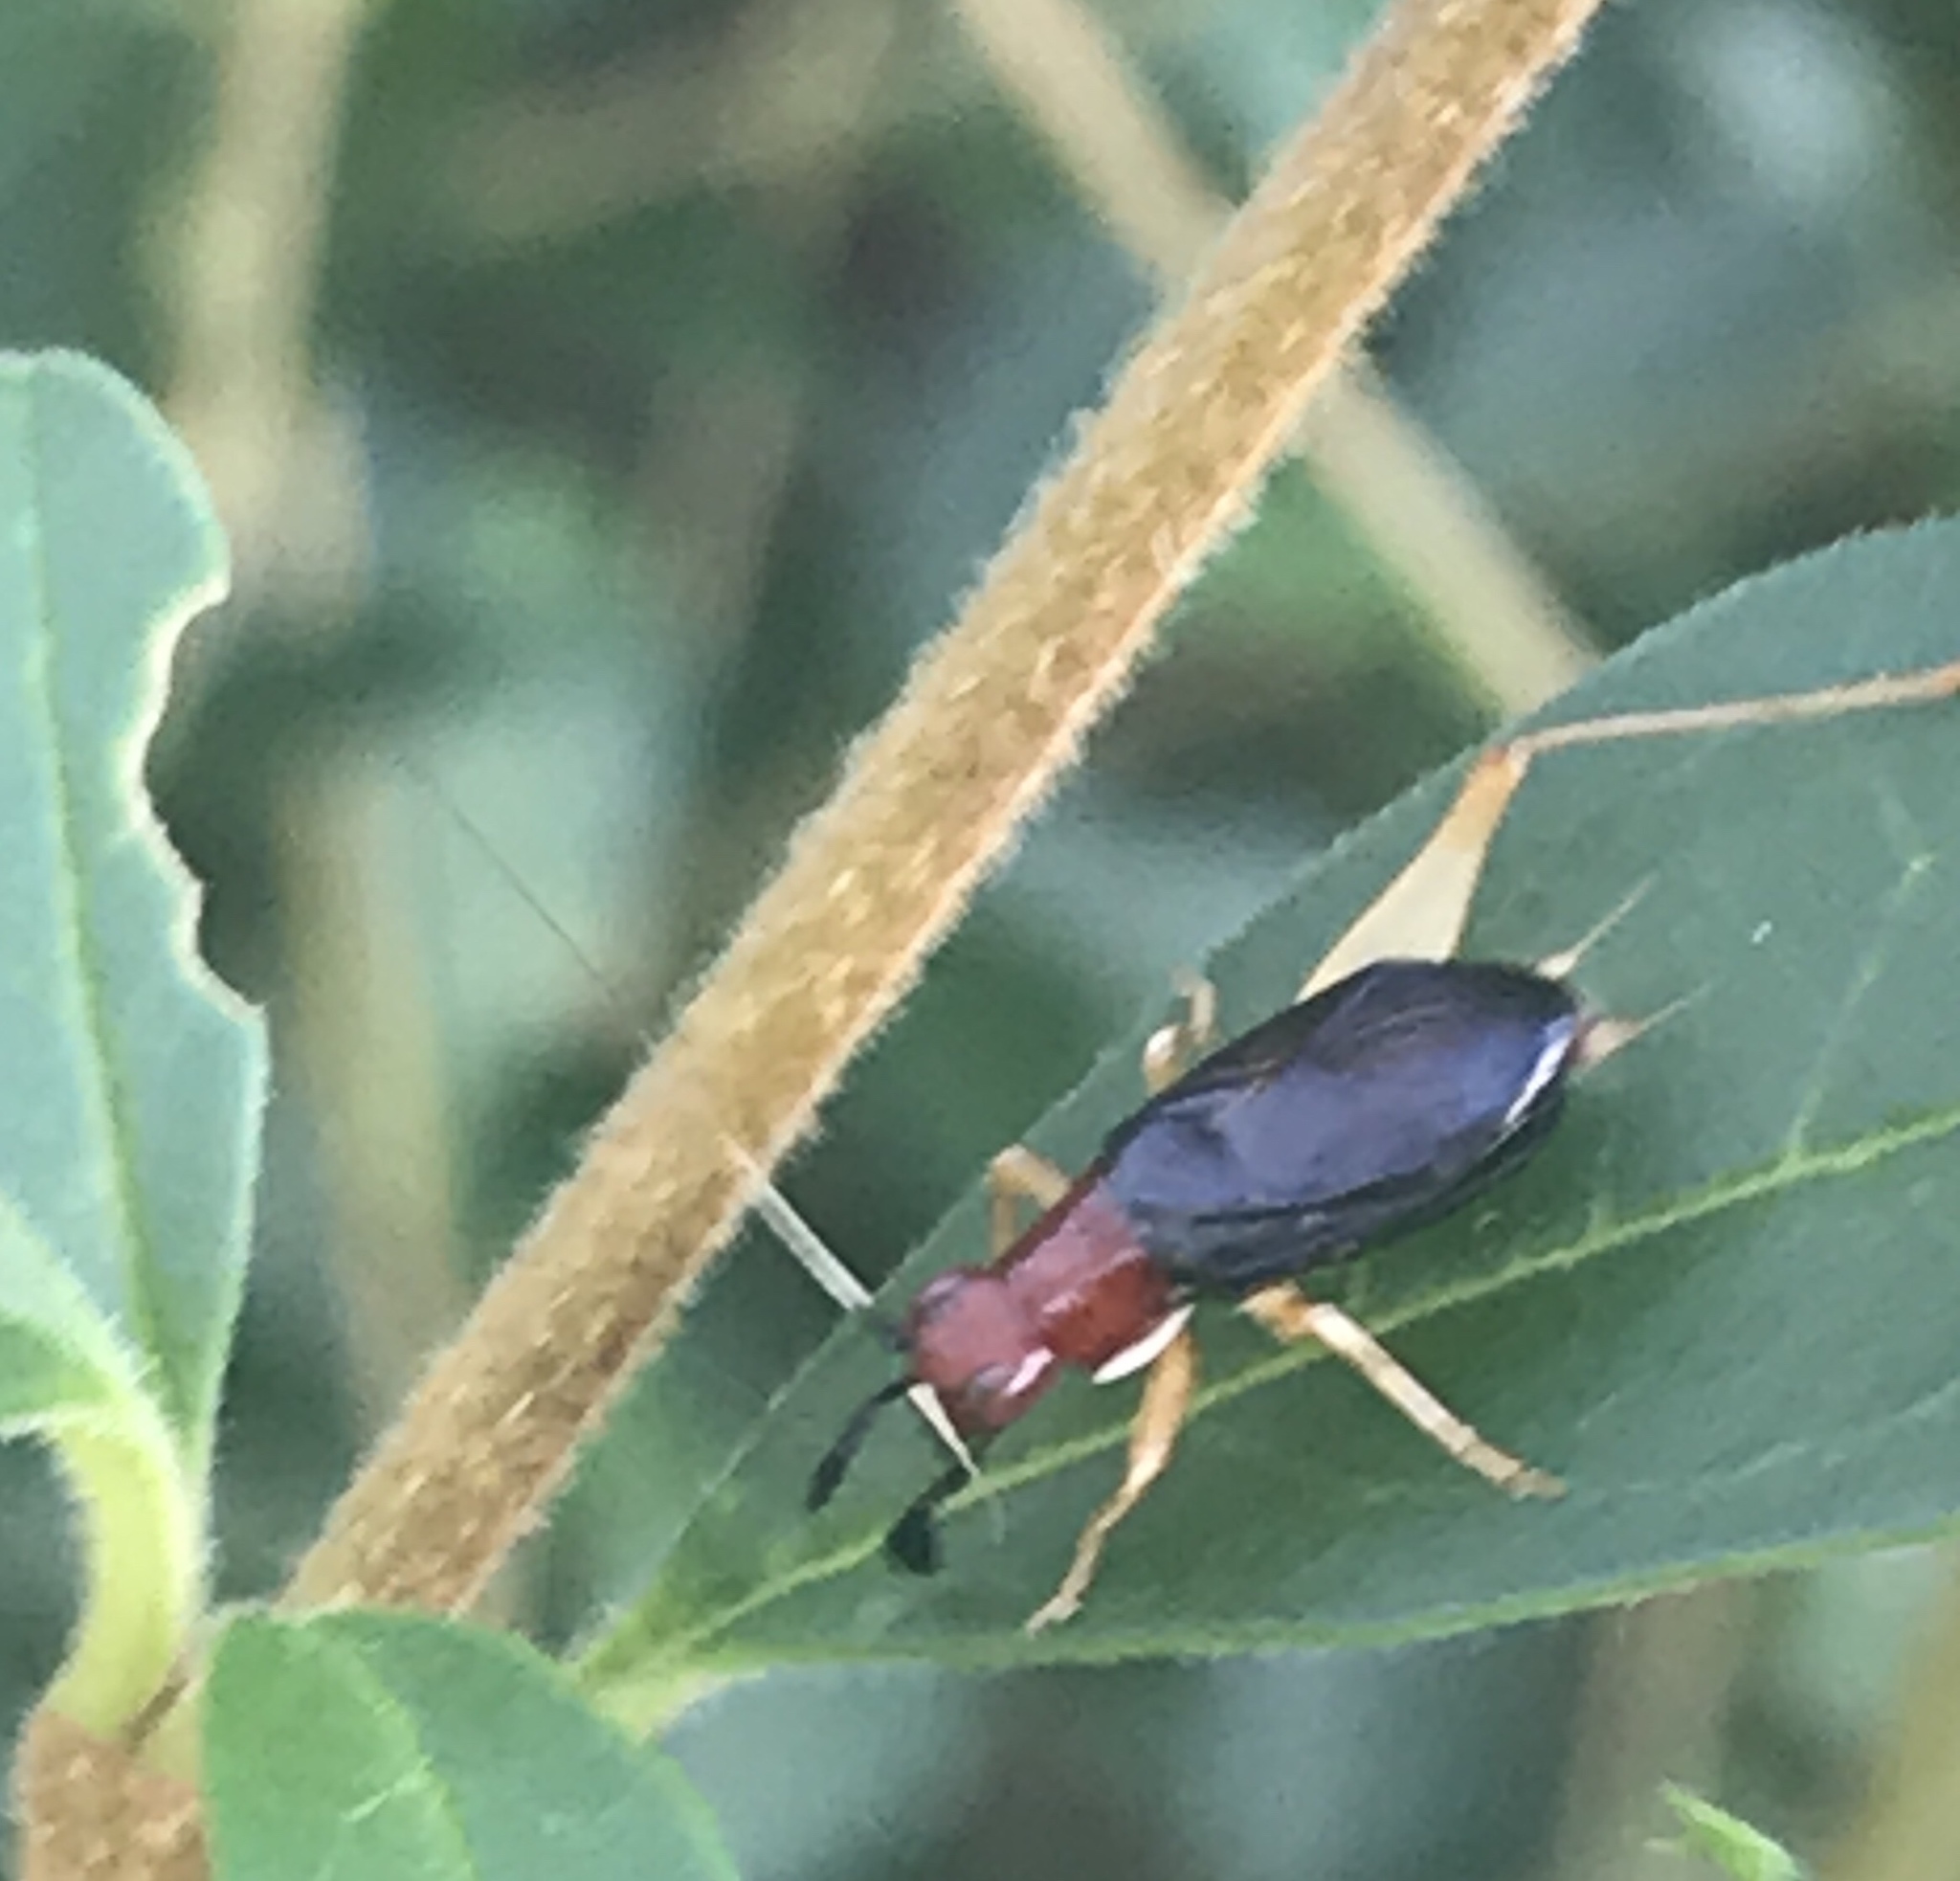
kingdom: Animalia
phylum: Arthropoda
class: Insecta
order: Orthoptera
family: Trigonidiidae
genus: Phyllopalpus
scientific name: Phyllopalpus pulchellus
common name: Handsome trig
